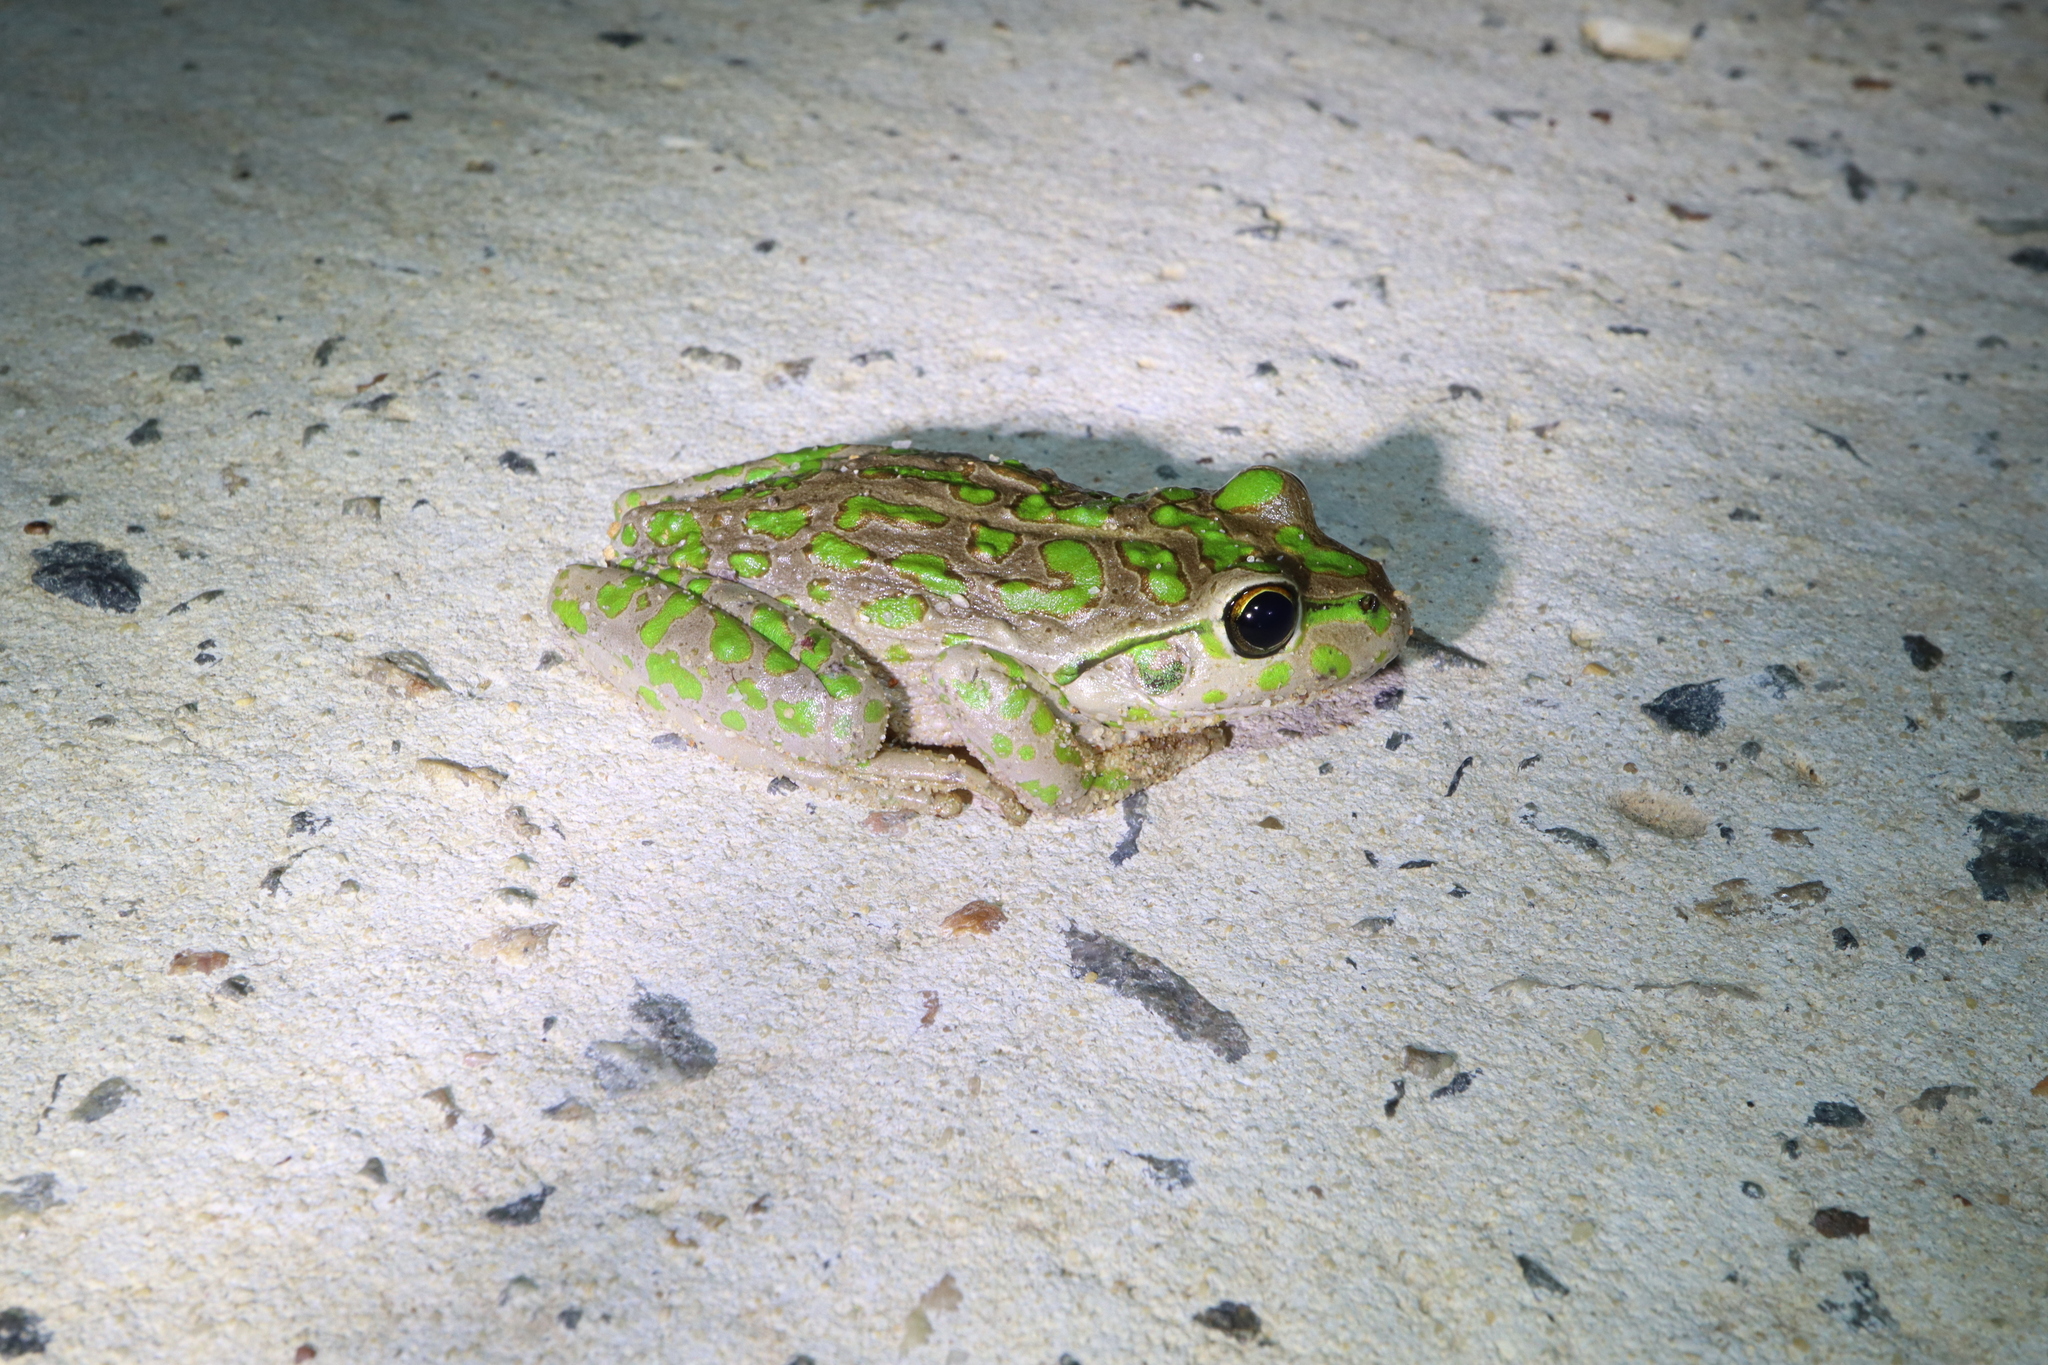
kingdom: Animalia
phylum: Chordata
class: Amphibia
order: Anura
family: Pelodryadidae
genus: Ranoidea
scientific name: Ranoidea cyclorhynchus
